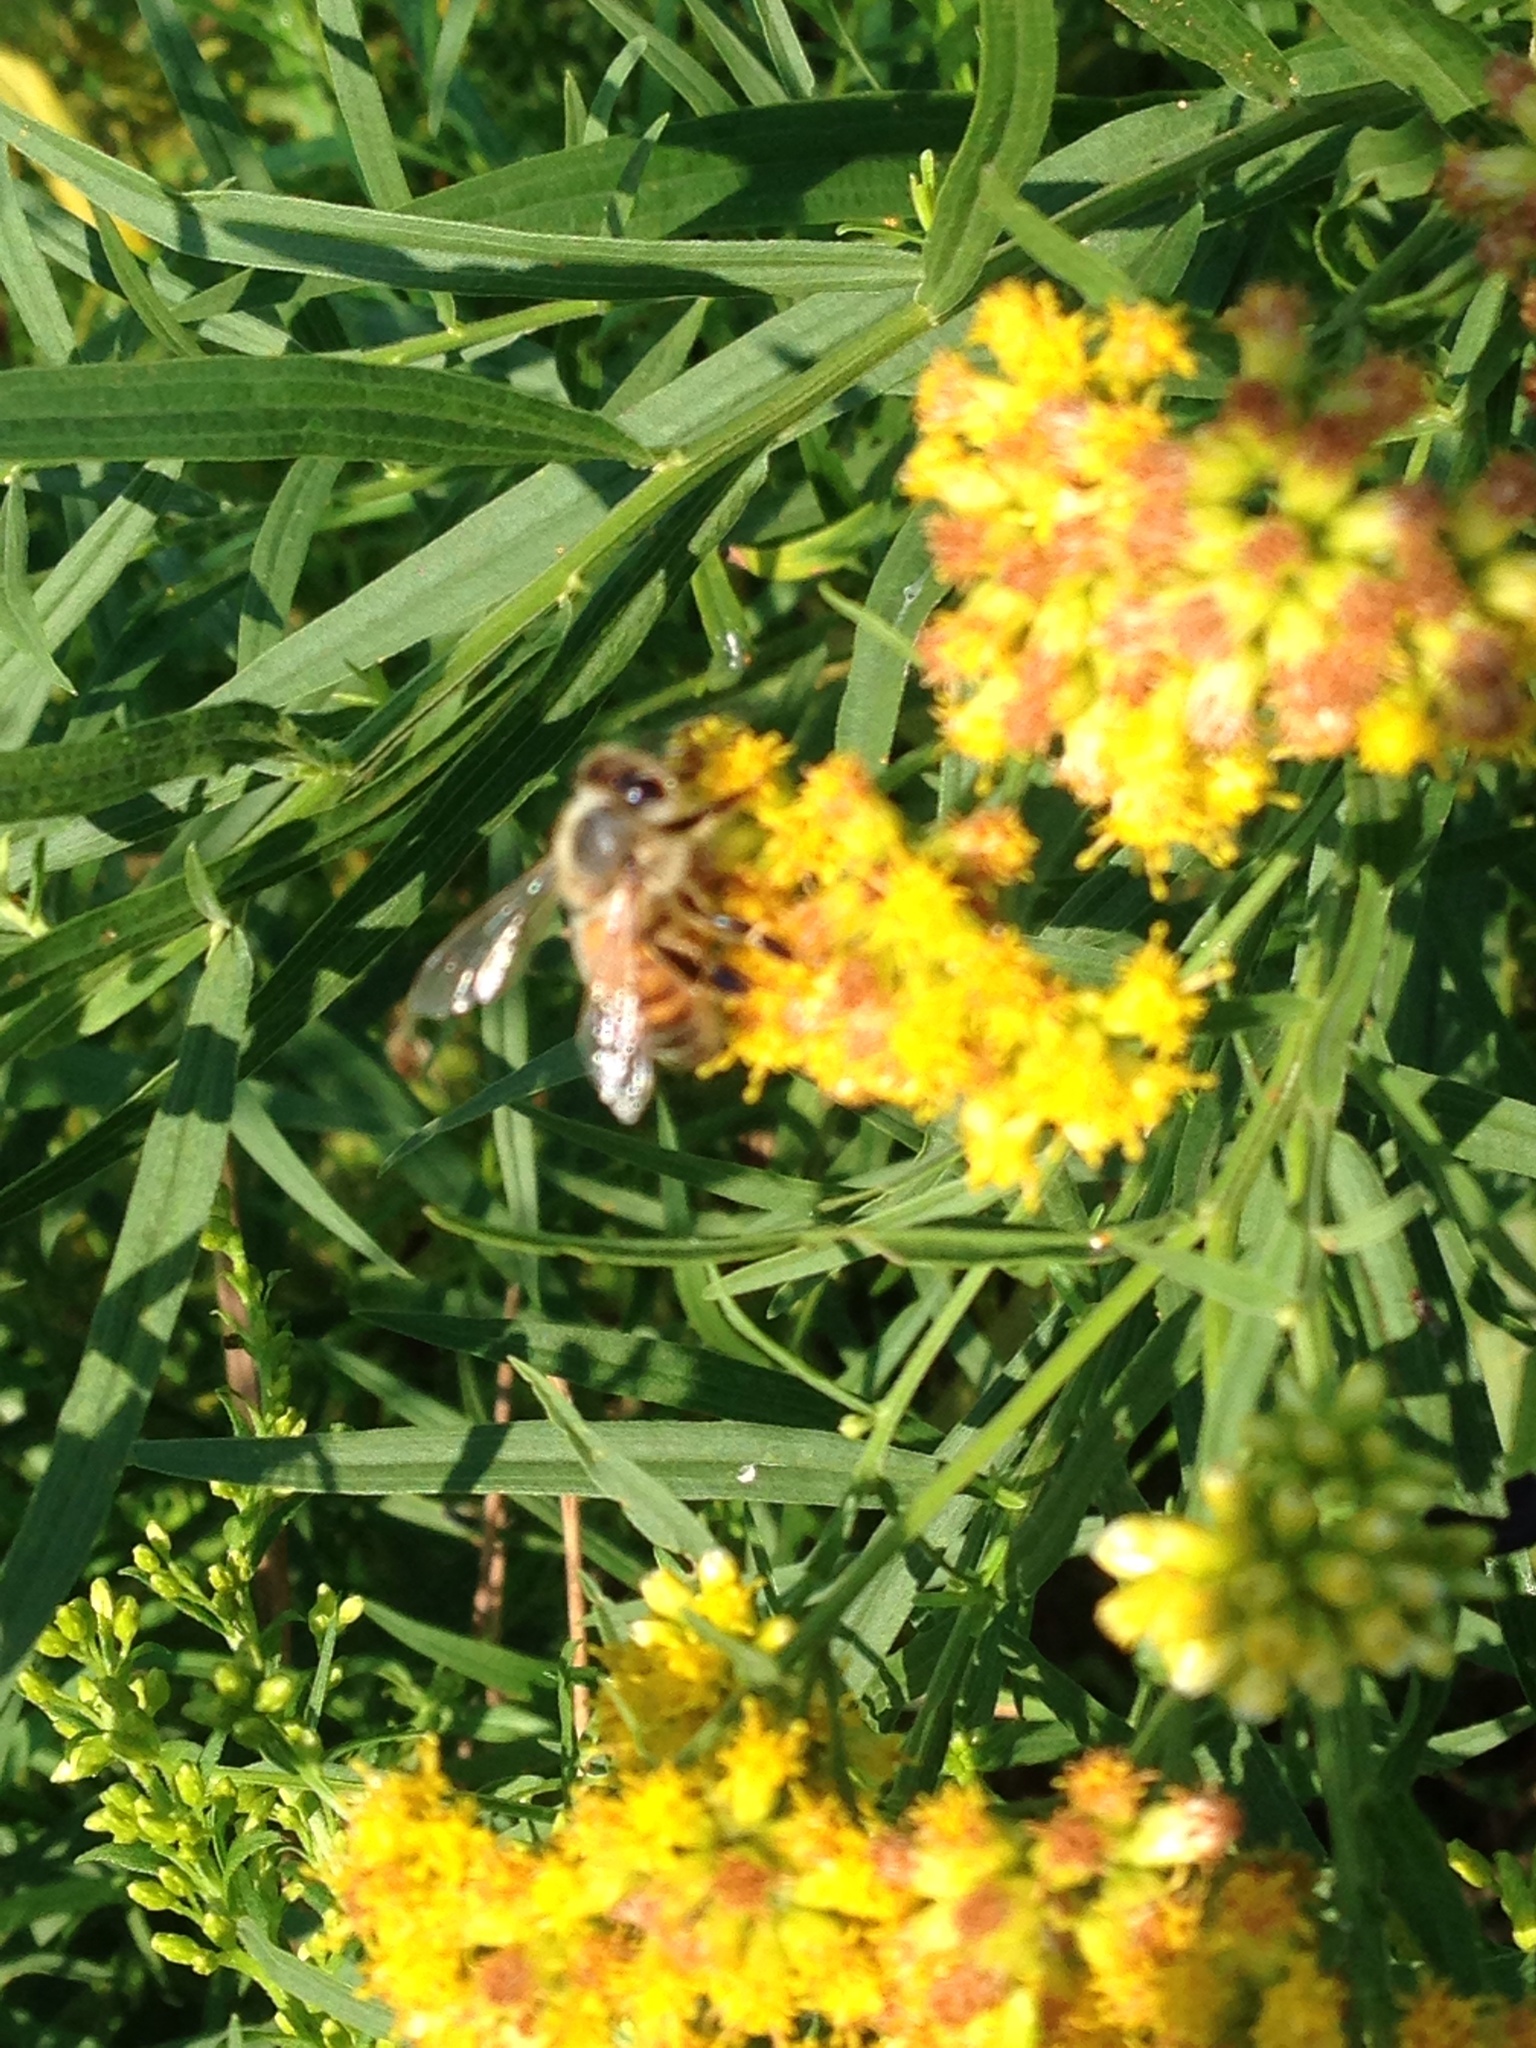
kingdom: Animalia
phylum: Arthropoda
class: Insecta
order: Hymenoptera
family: Apidae
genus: Apis
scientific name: Apis mellifera
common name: Honey bee
